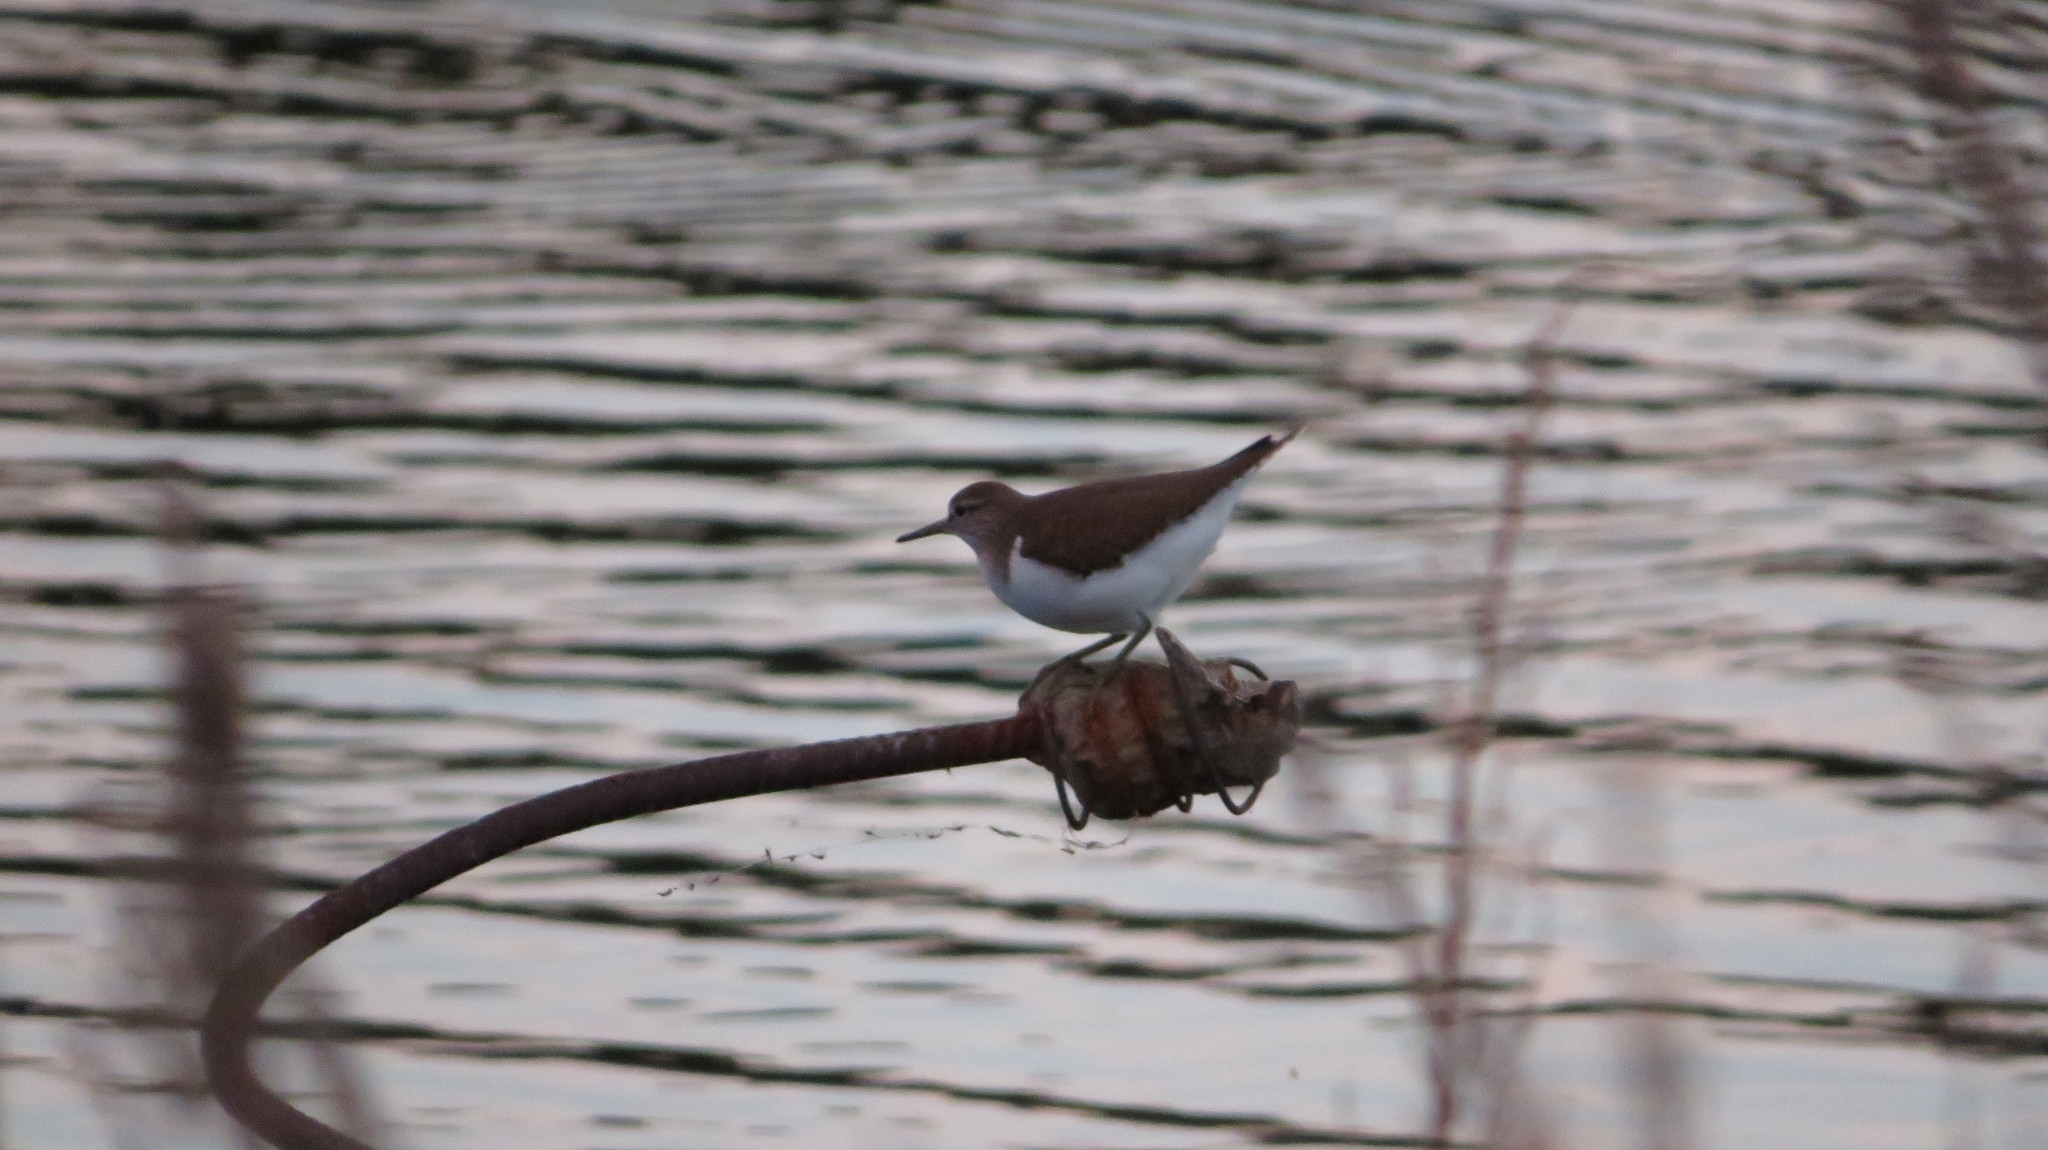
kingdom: Animalia
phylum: Chordata
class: Aves
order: Charadriiformes
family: Scolopacidae
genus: Actitis
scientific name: Actitis hypoleucos
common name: Common sandpiper
